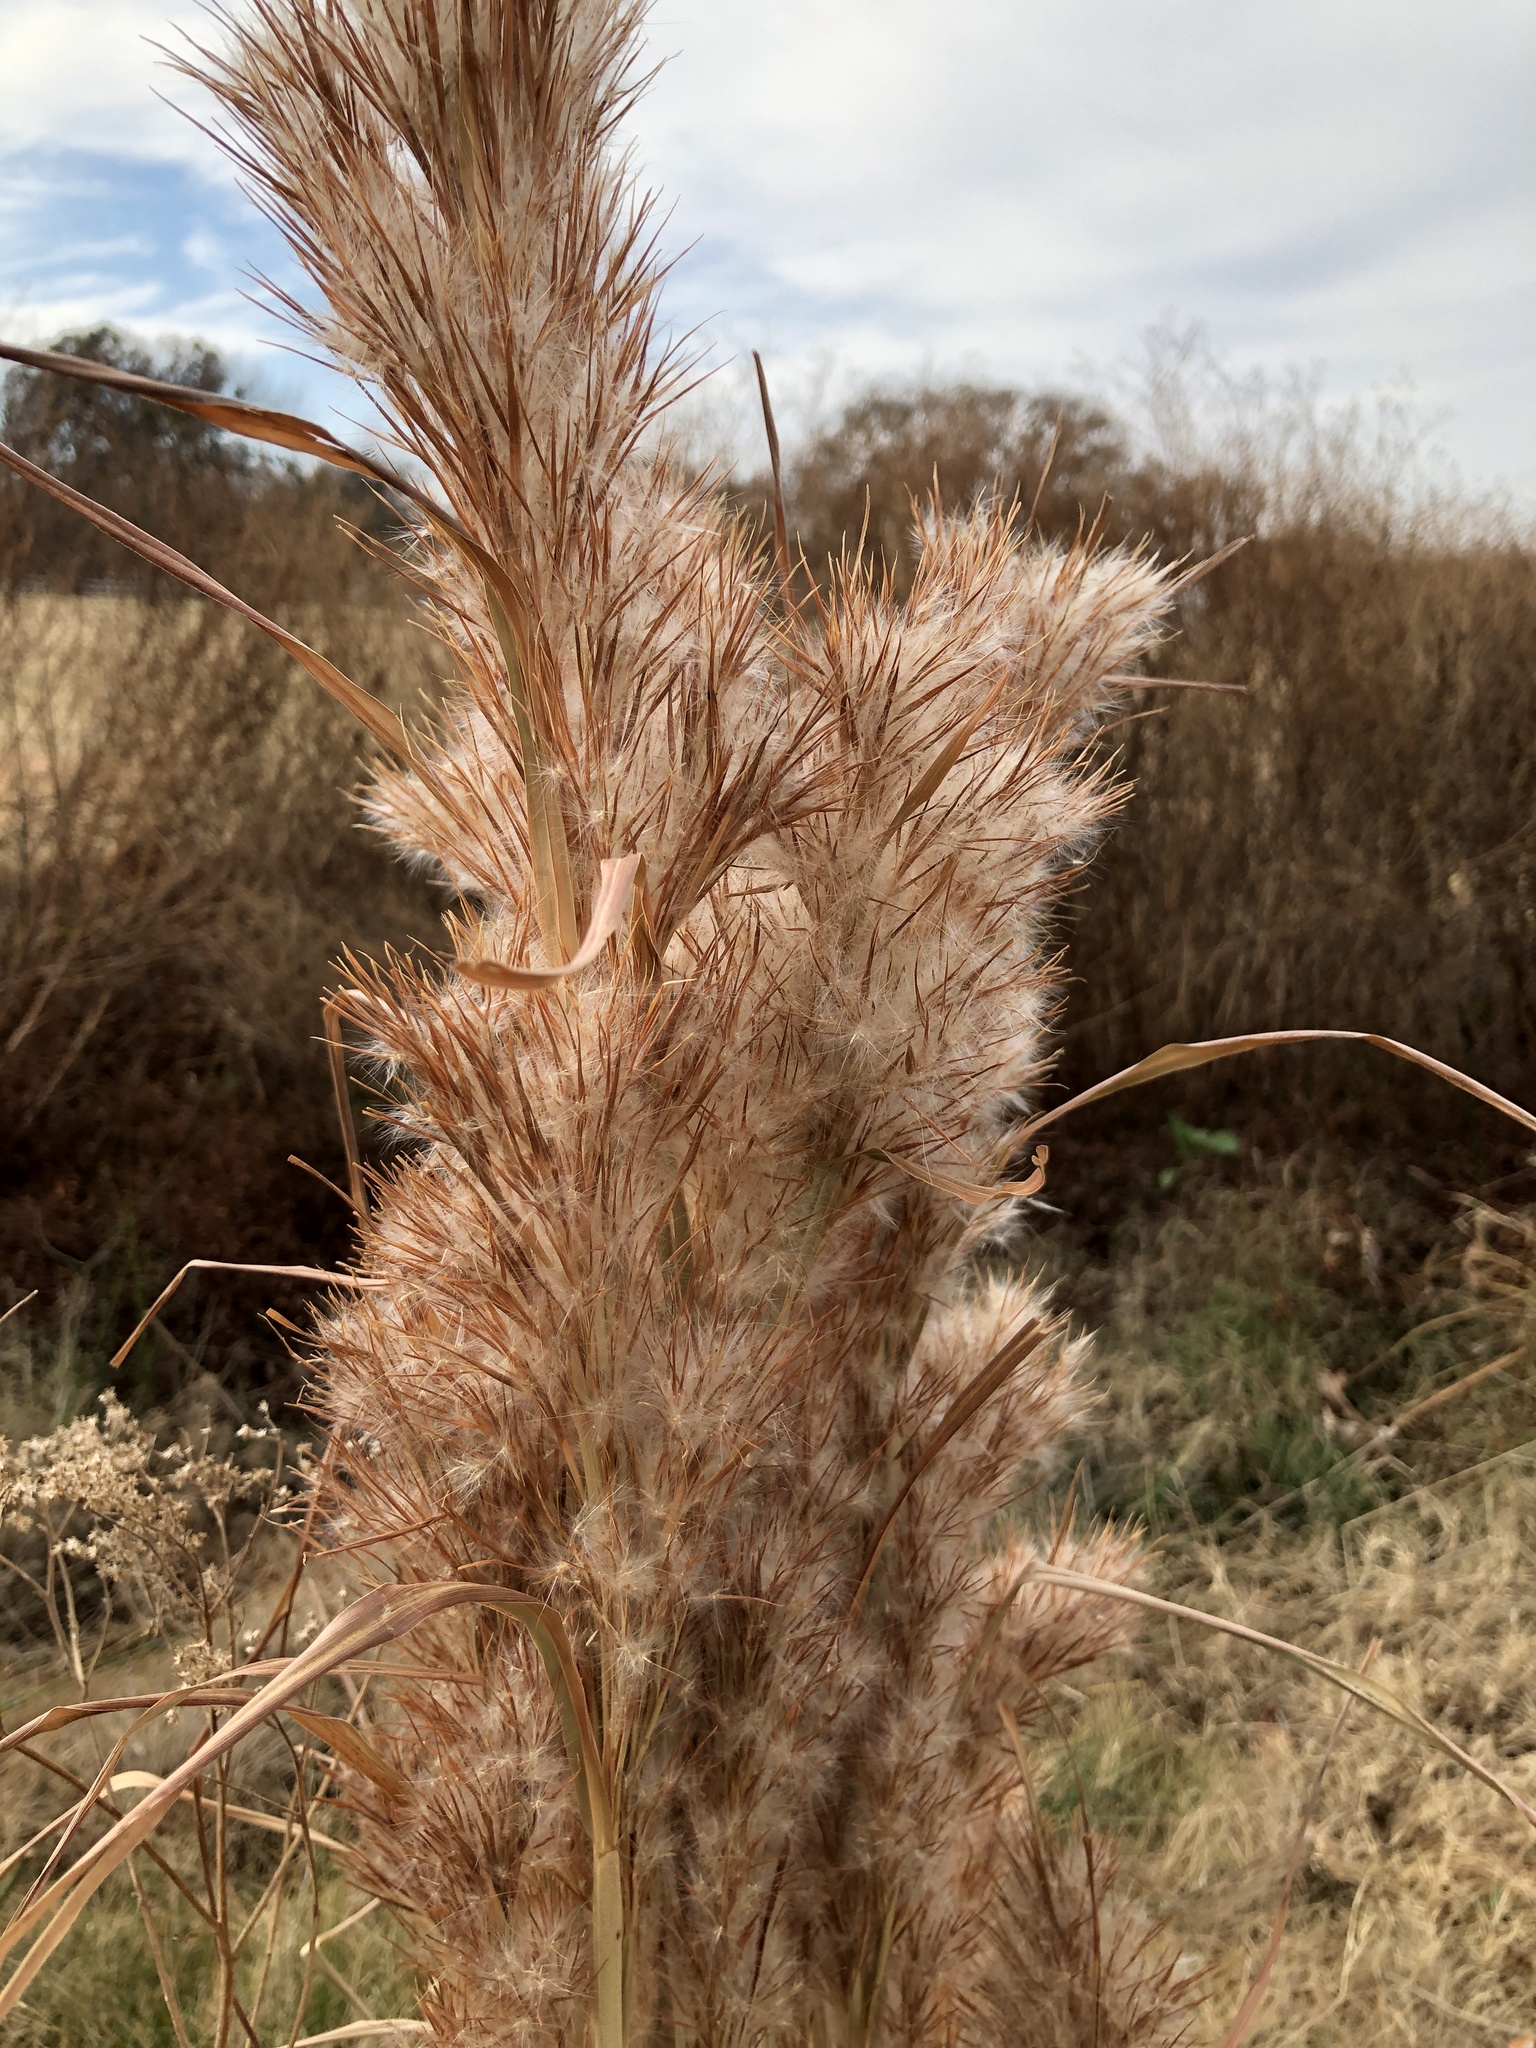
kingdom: Plantae
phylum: Tracheophyta
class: Liliopsida
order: Poales
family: Poaceae
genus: Andropogon
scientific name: Andropogon tenuispatheus
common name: Bushy bluestem
